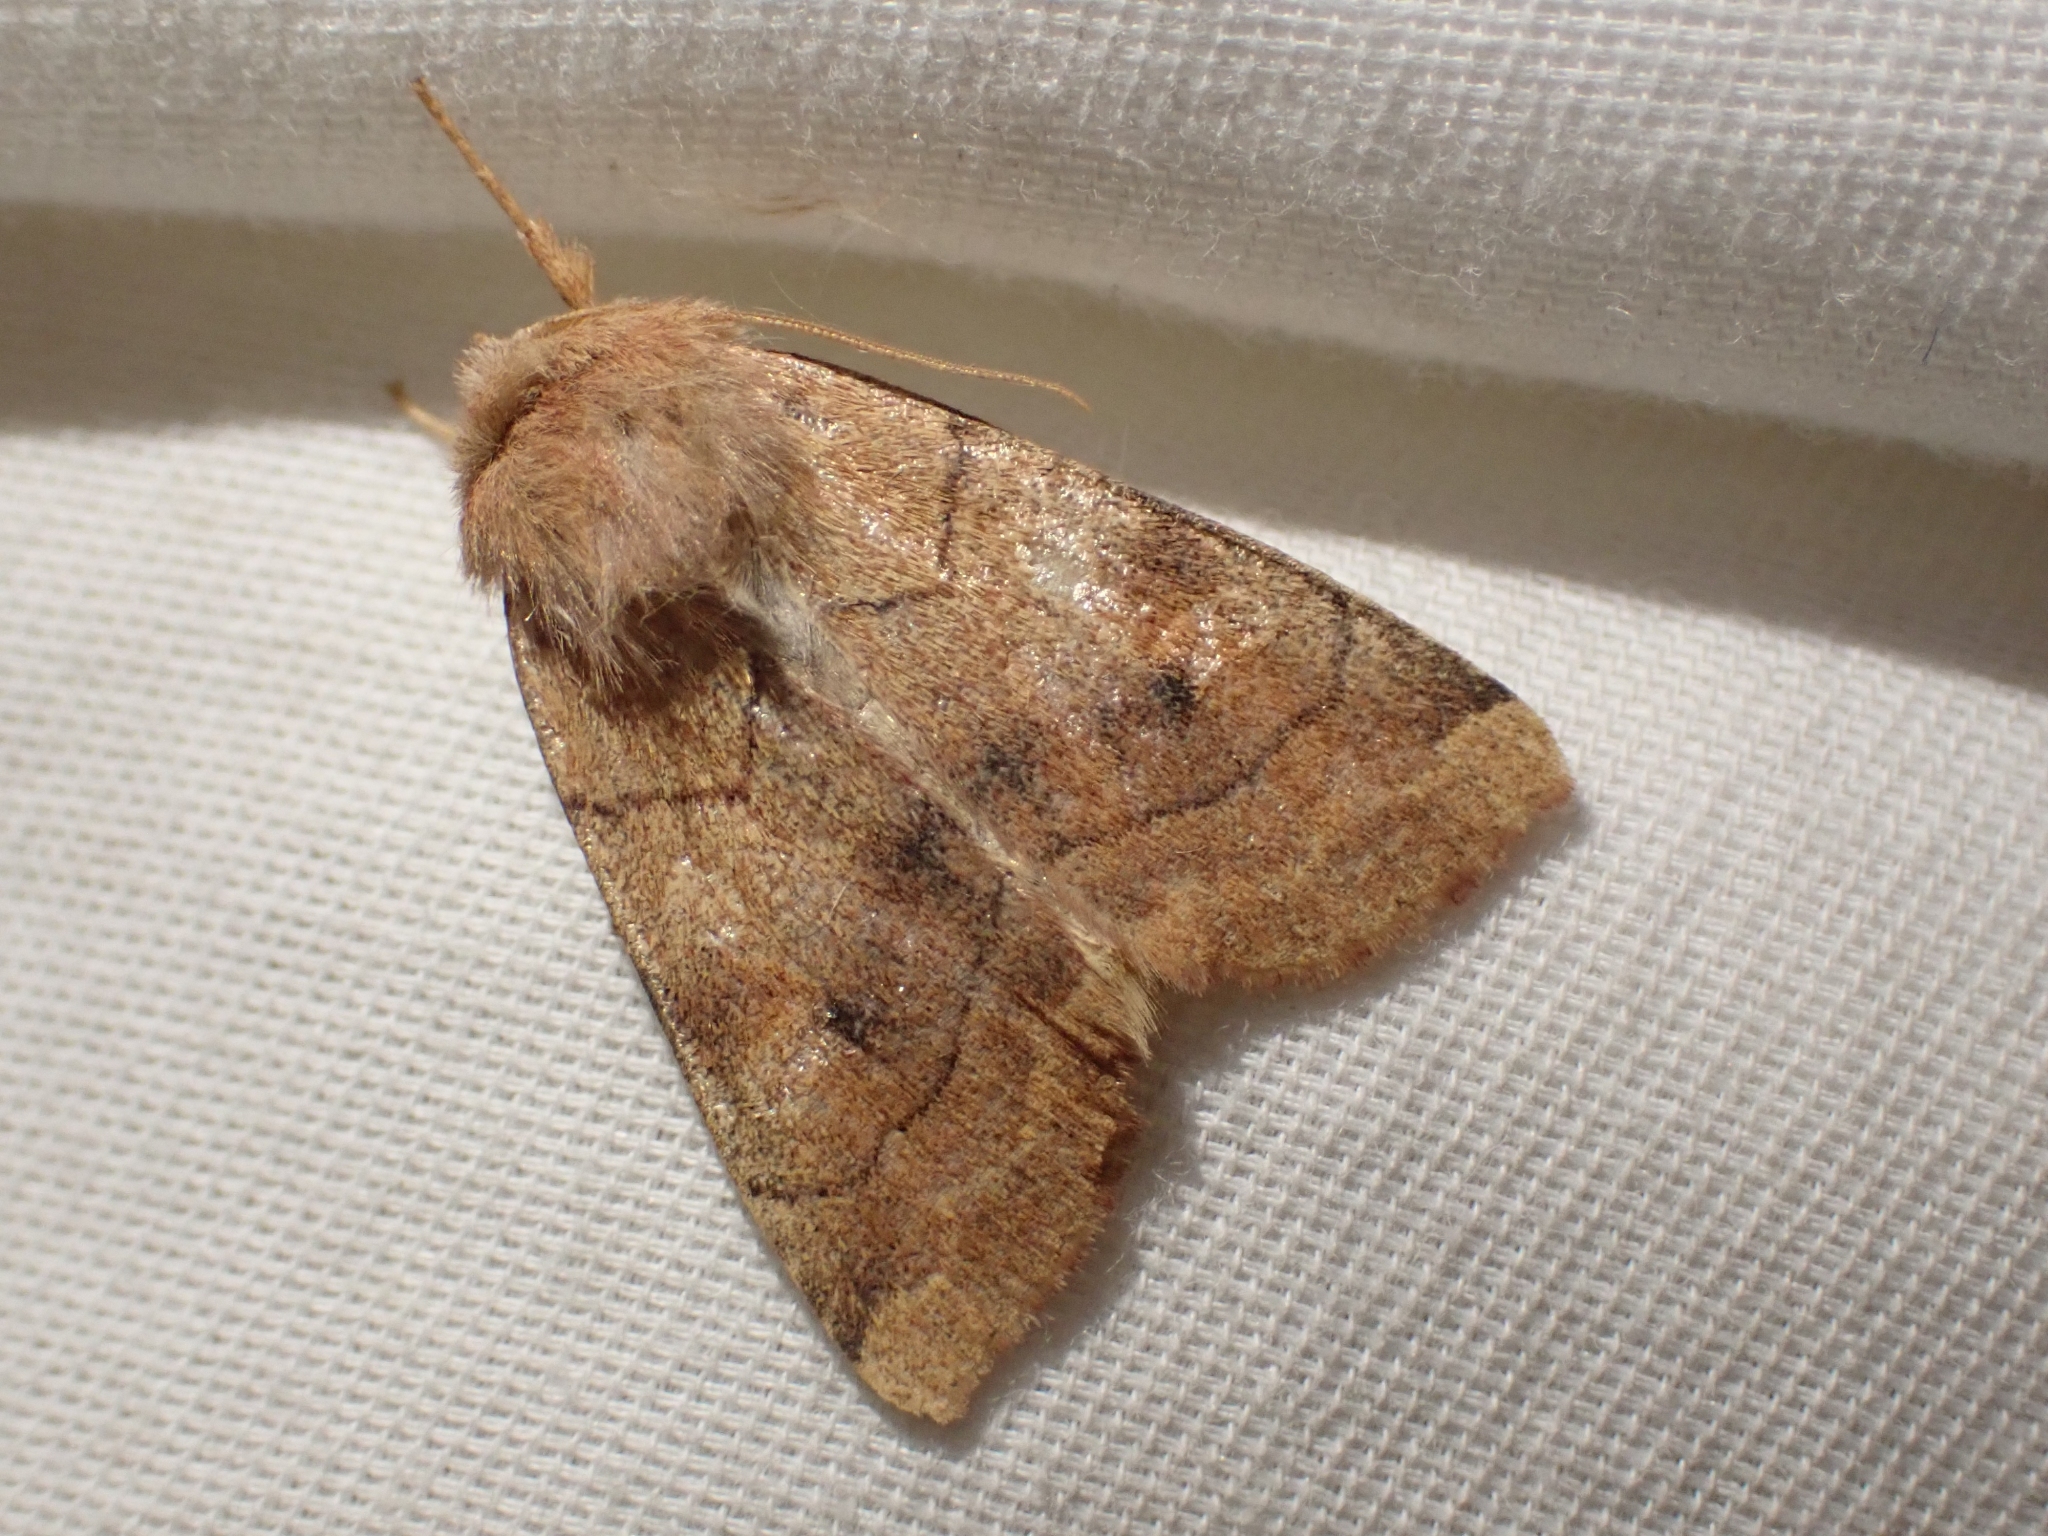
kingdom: Animalia
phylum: Arthropoda
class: Insecta
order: Lepidoptera
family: Noctuidae
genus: Enargia
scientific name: Enargia infumata
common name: Smoked sallow
